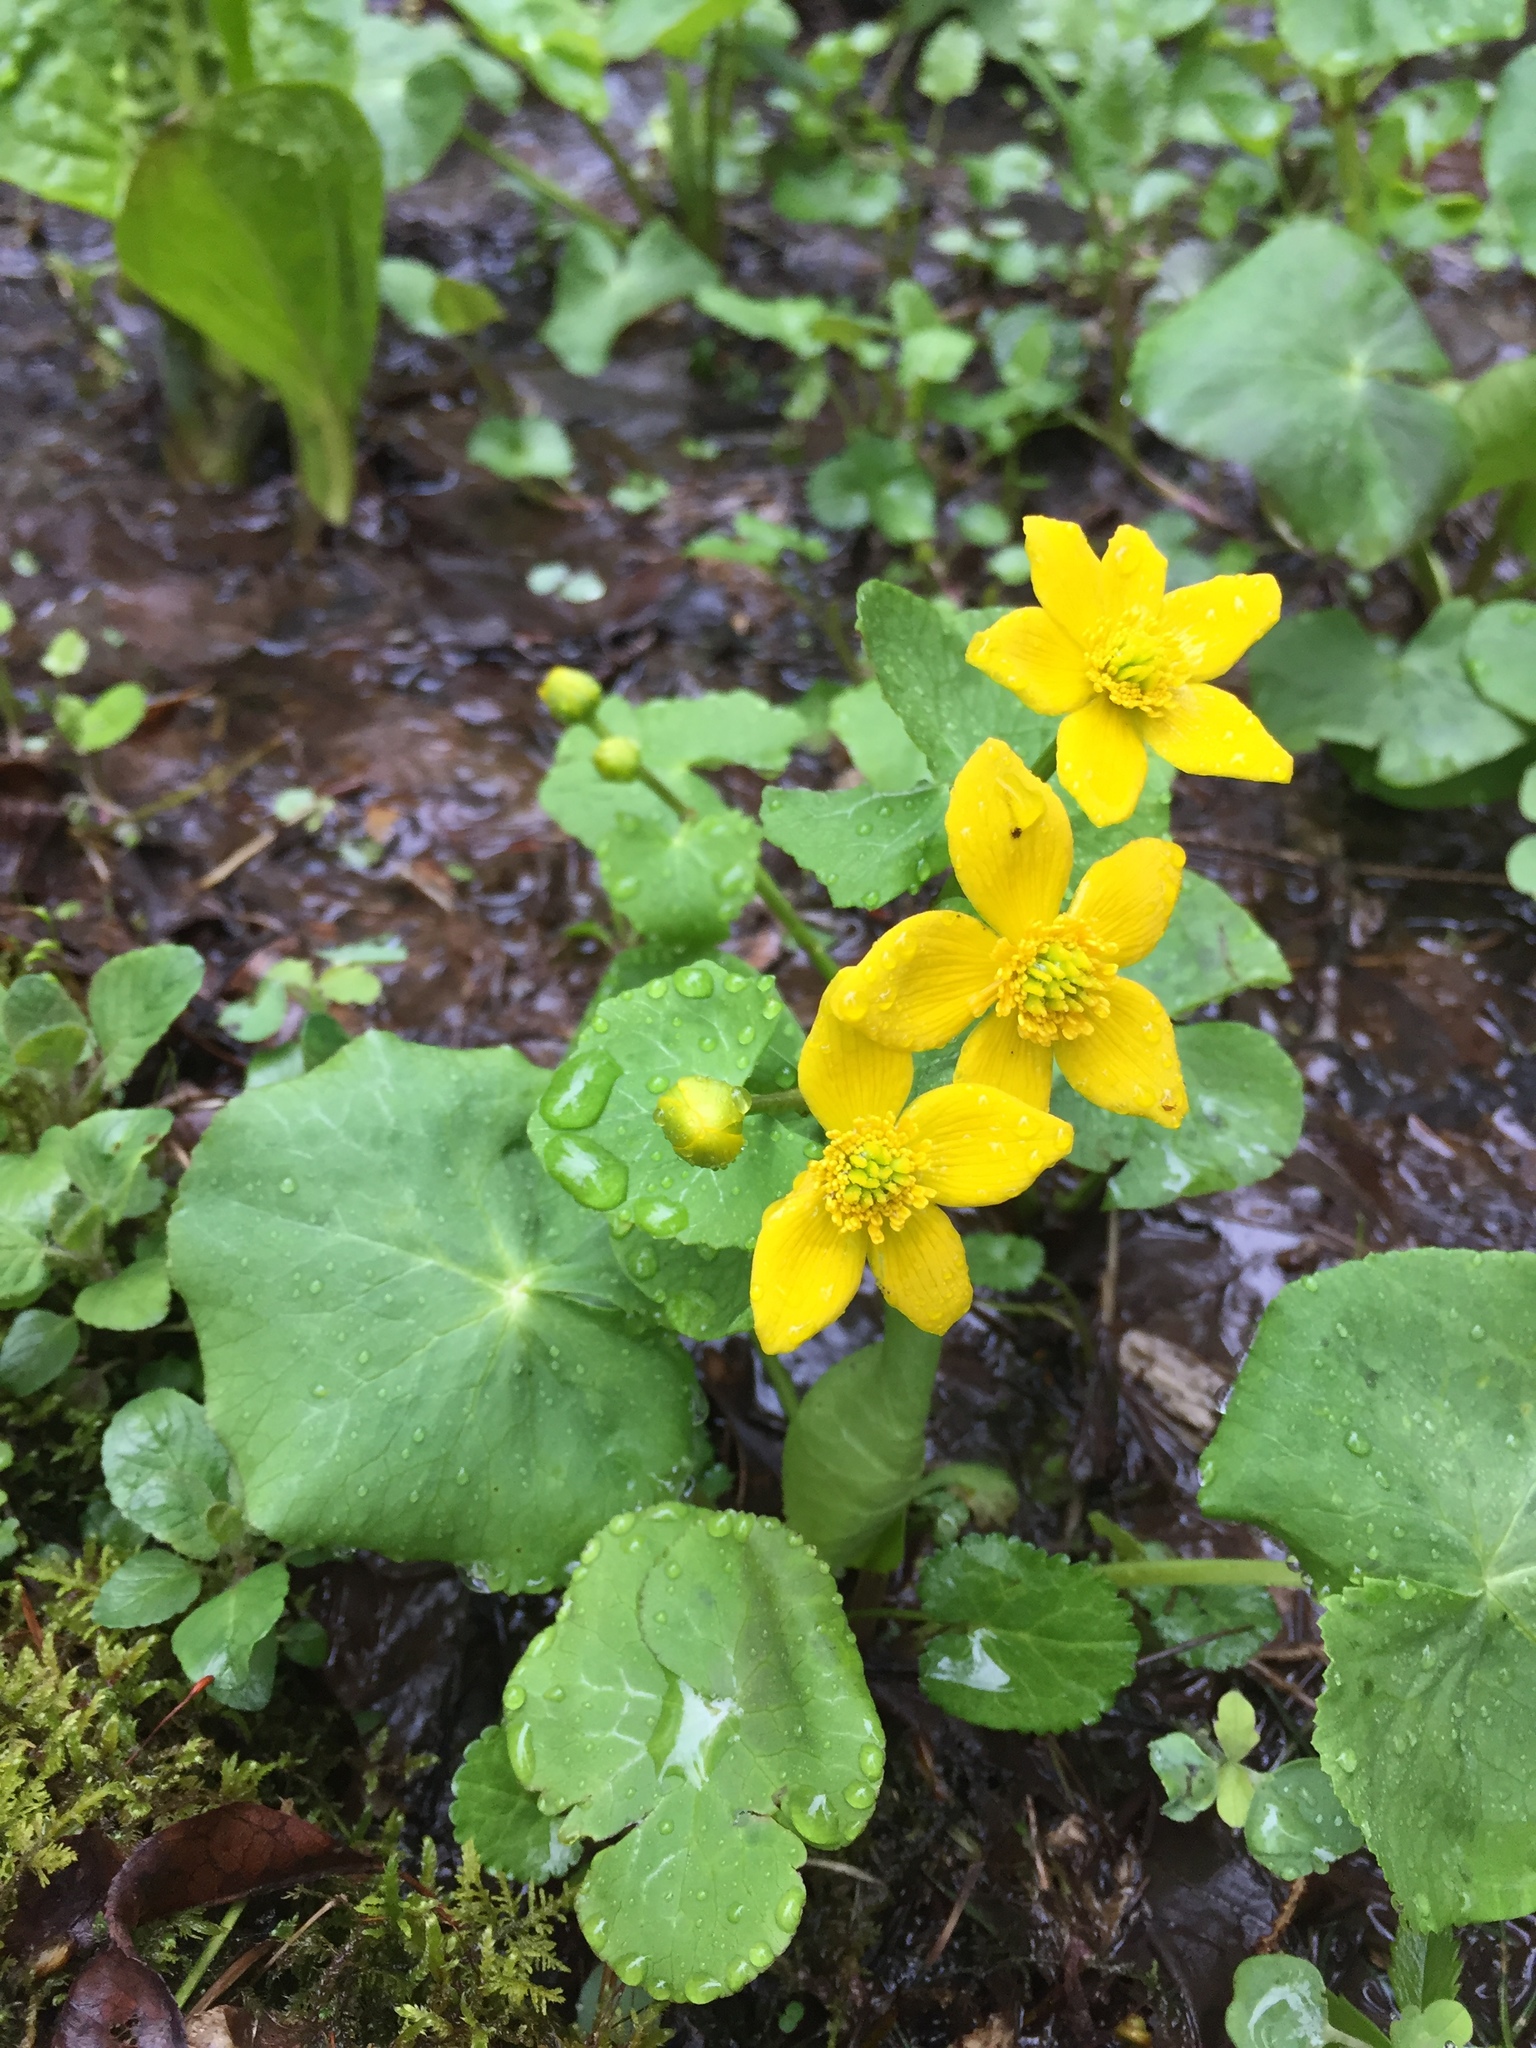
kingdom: Plantae
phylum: Tracheophyta
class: Magnoliopsida
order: Ranunculales
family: Ranunculaceae
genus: Caltha
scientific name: Caltha palustris
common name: Marsh marigold
